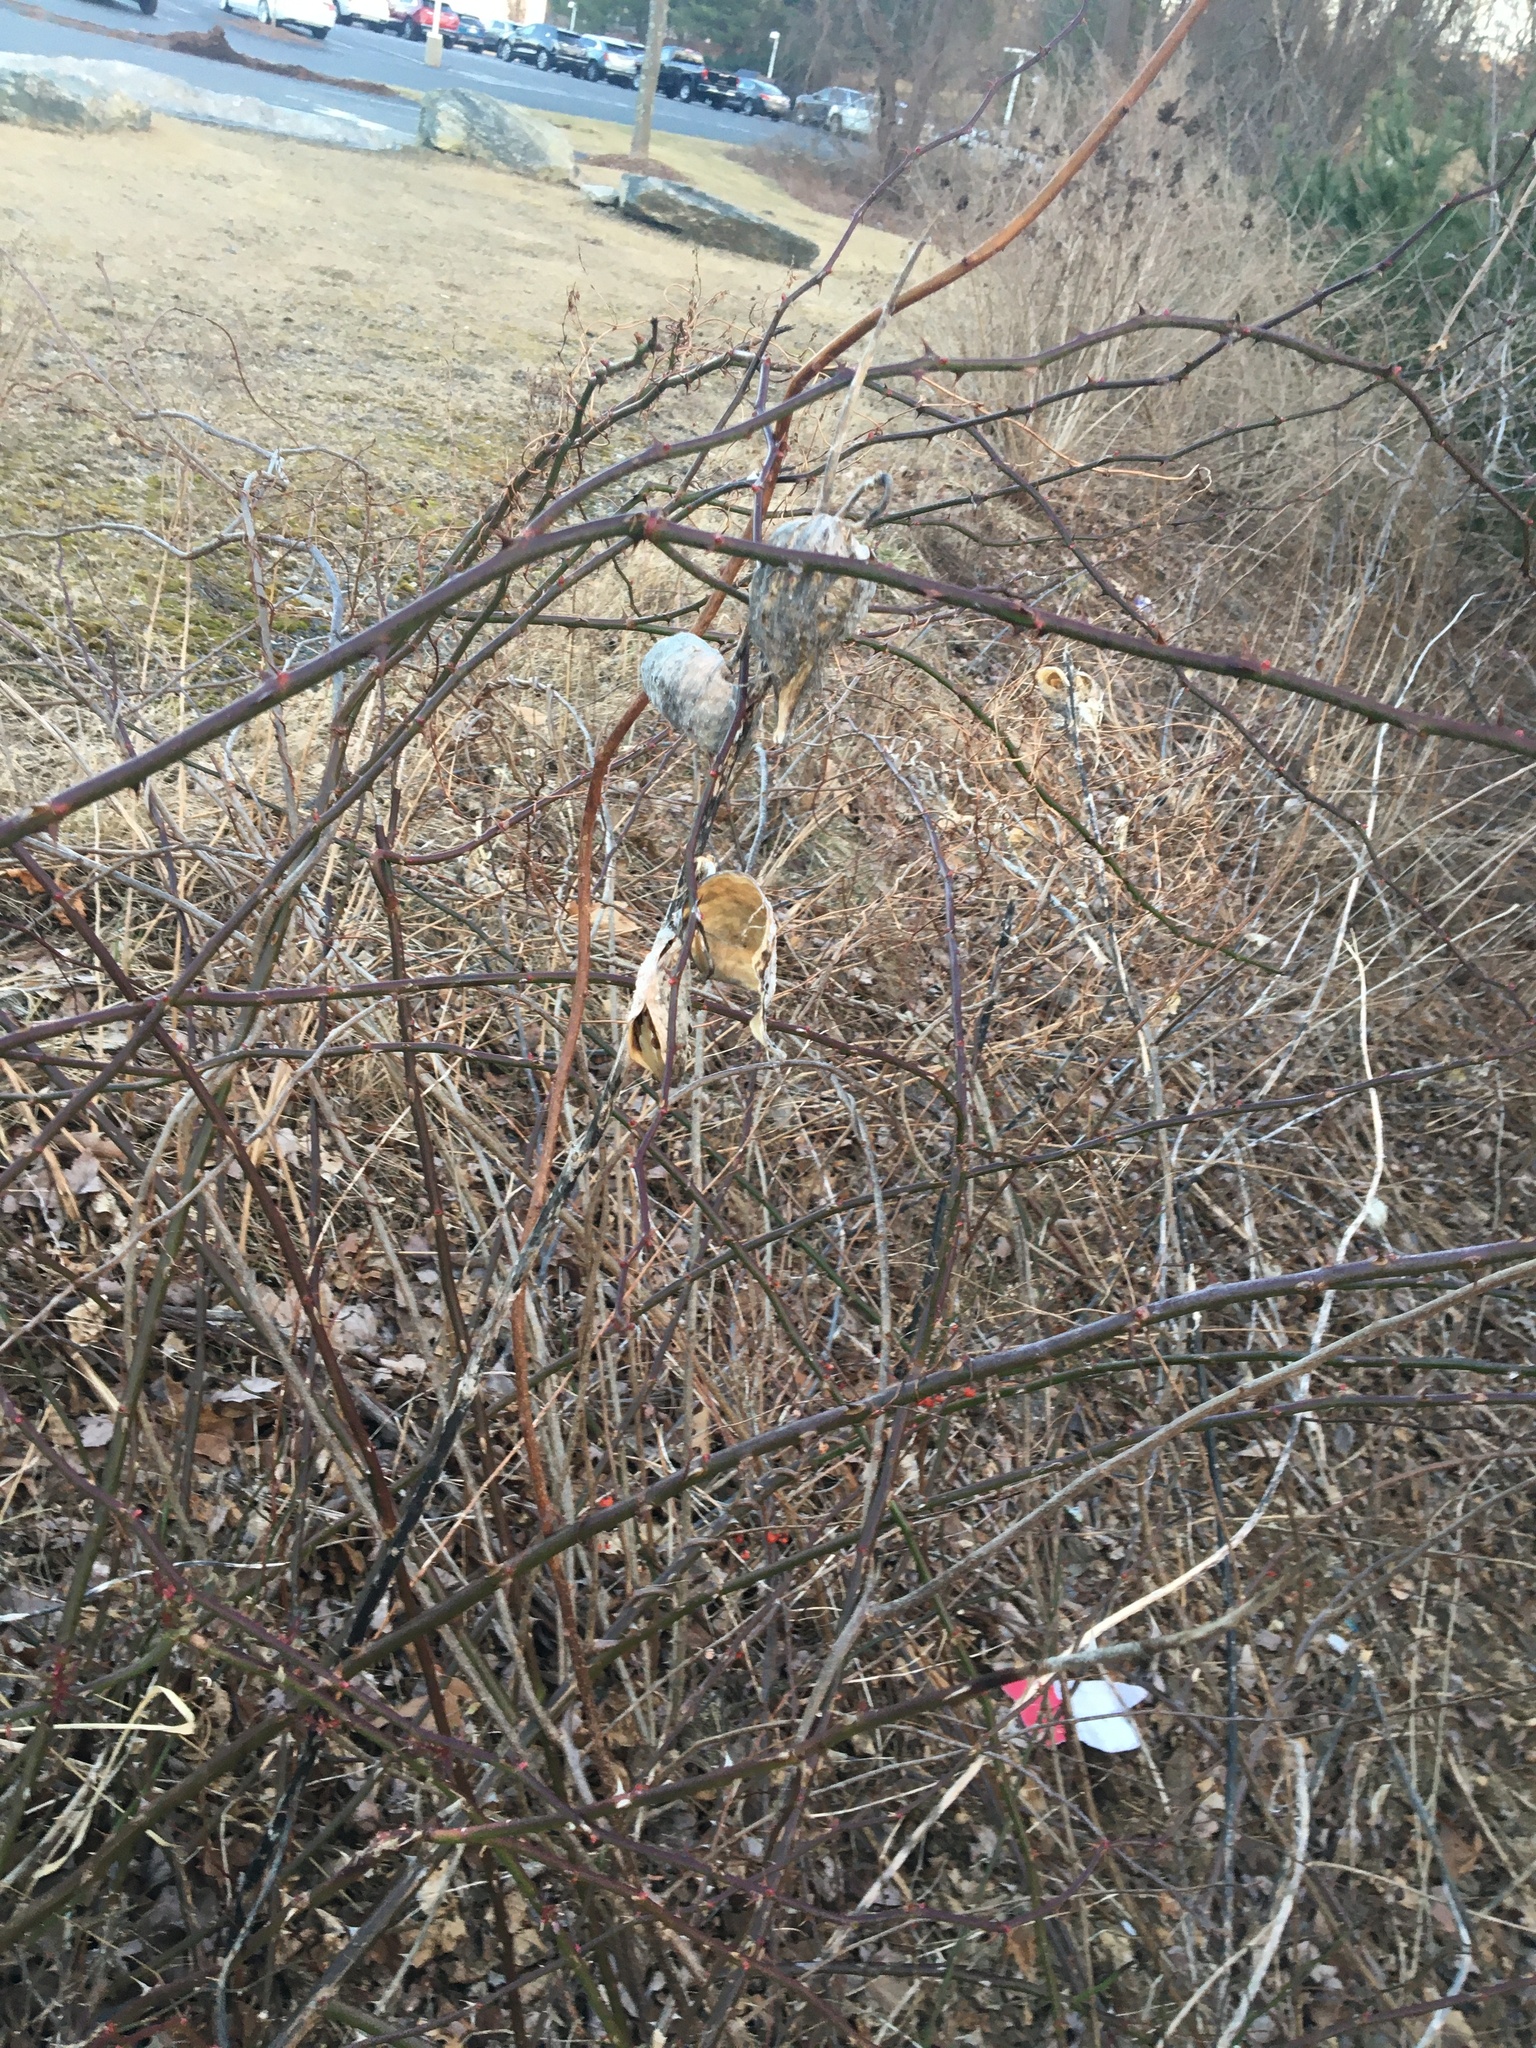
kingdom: Plantae
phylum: Tracheophyta
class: Magnoliopsida
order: Gentianales
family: Apocynaceae
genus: Asclepias
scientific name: Asclepias syriaca
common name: Common milkweed
